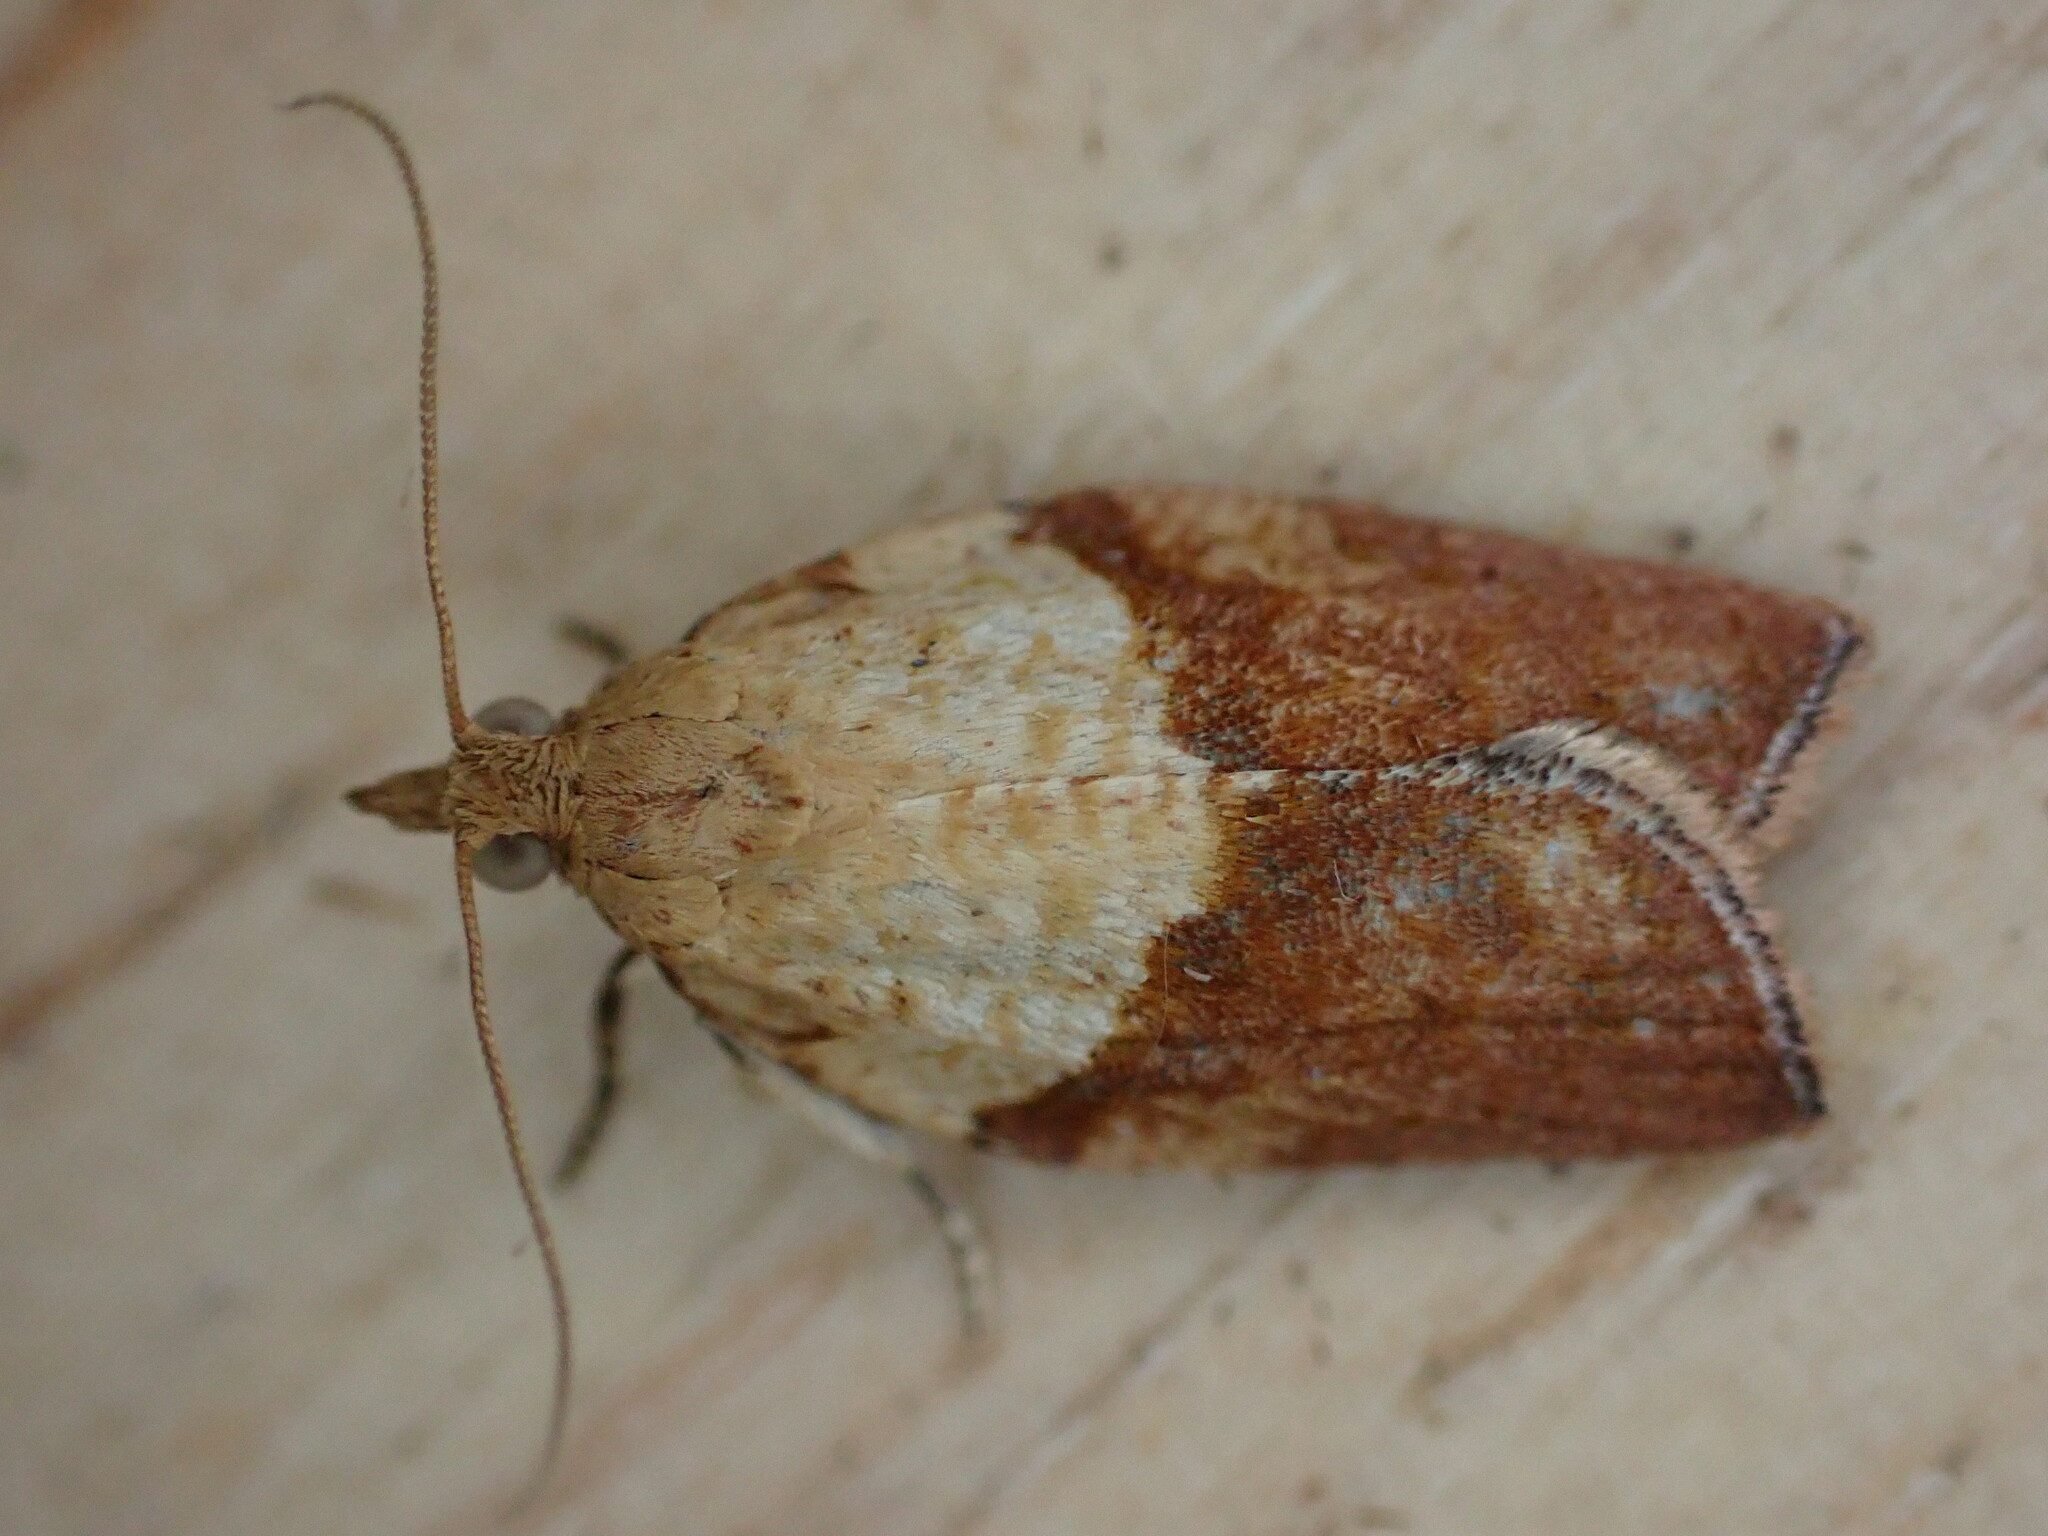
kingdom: Animalia
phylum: Arthropoda
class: Insecta
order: Lepidoptera
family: Tortricidae
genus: Epiphyas
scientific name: Epiphyas postvittana
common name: Light brown apple moth
